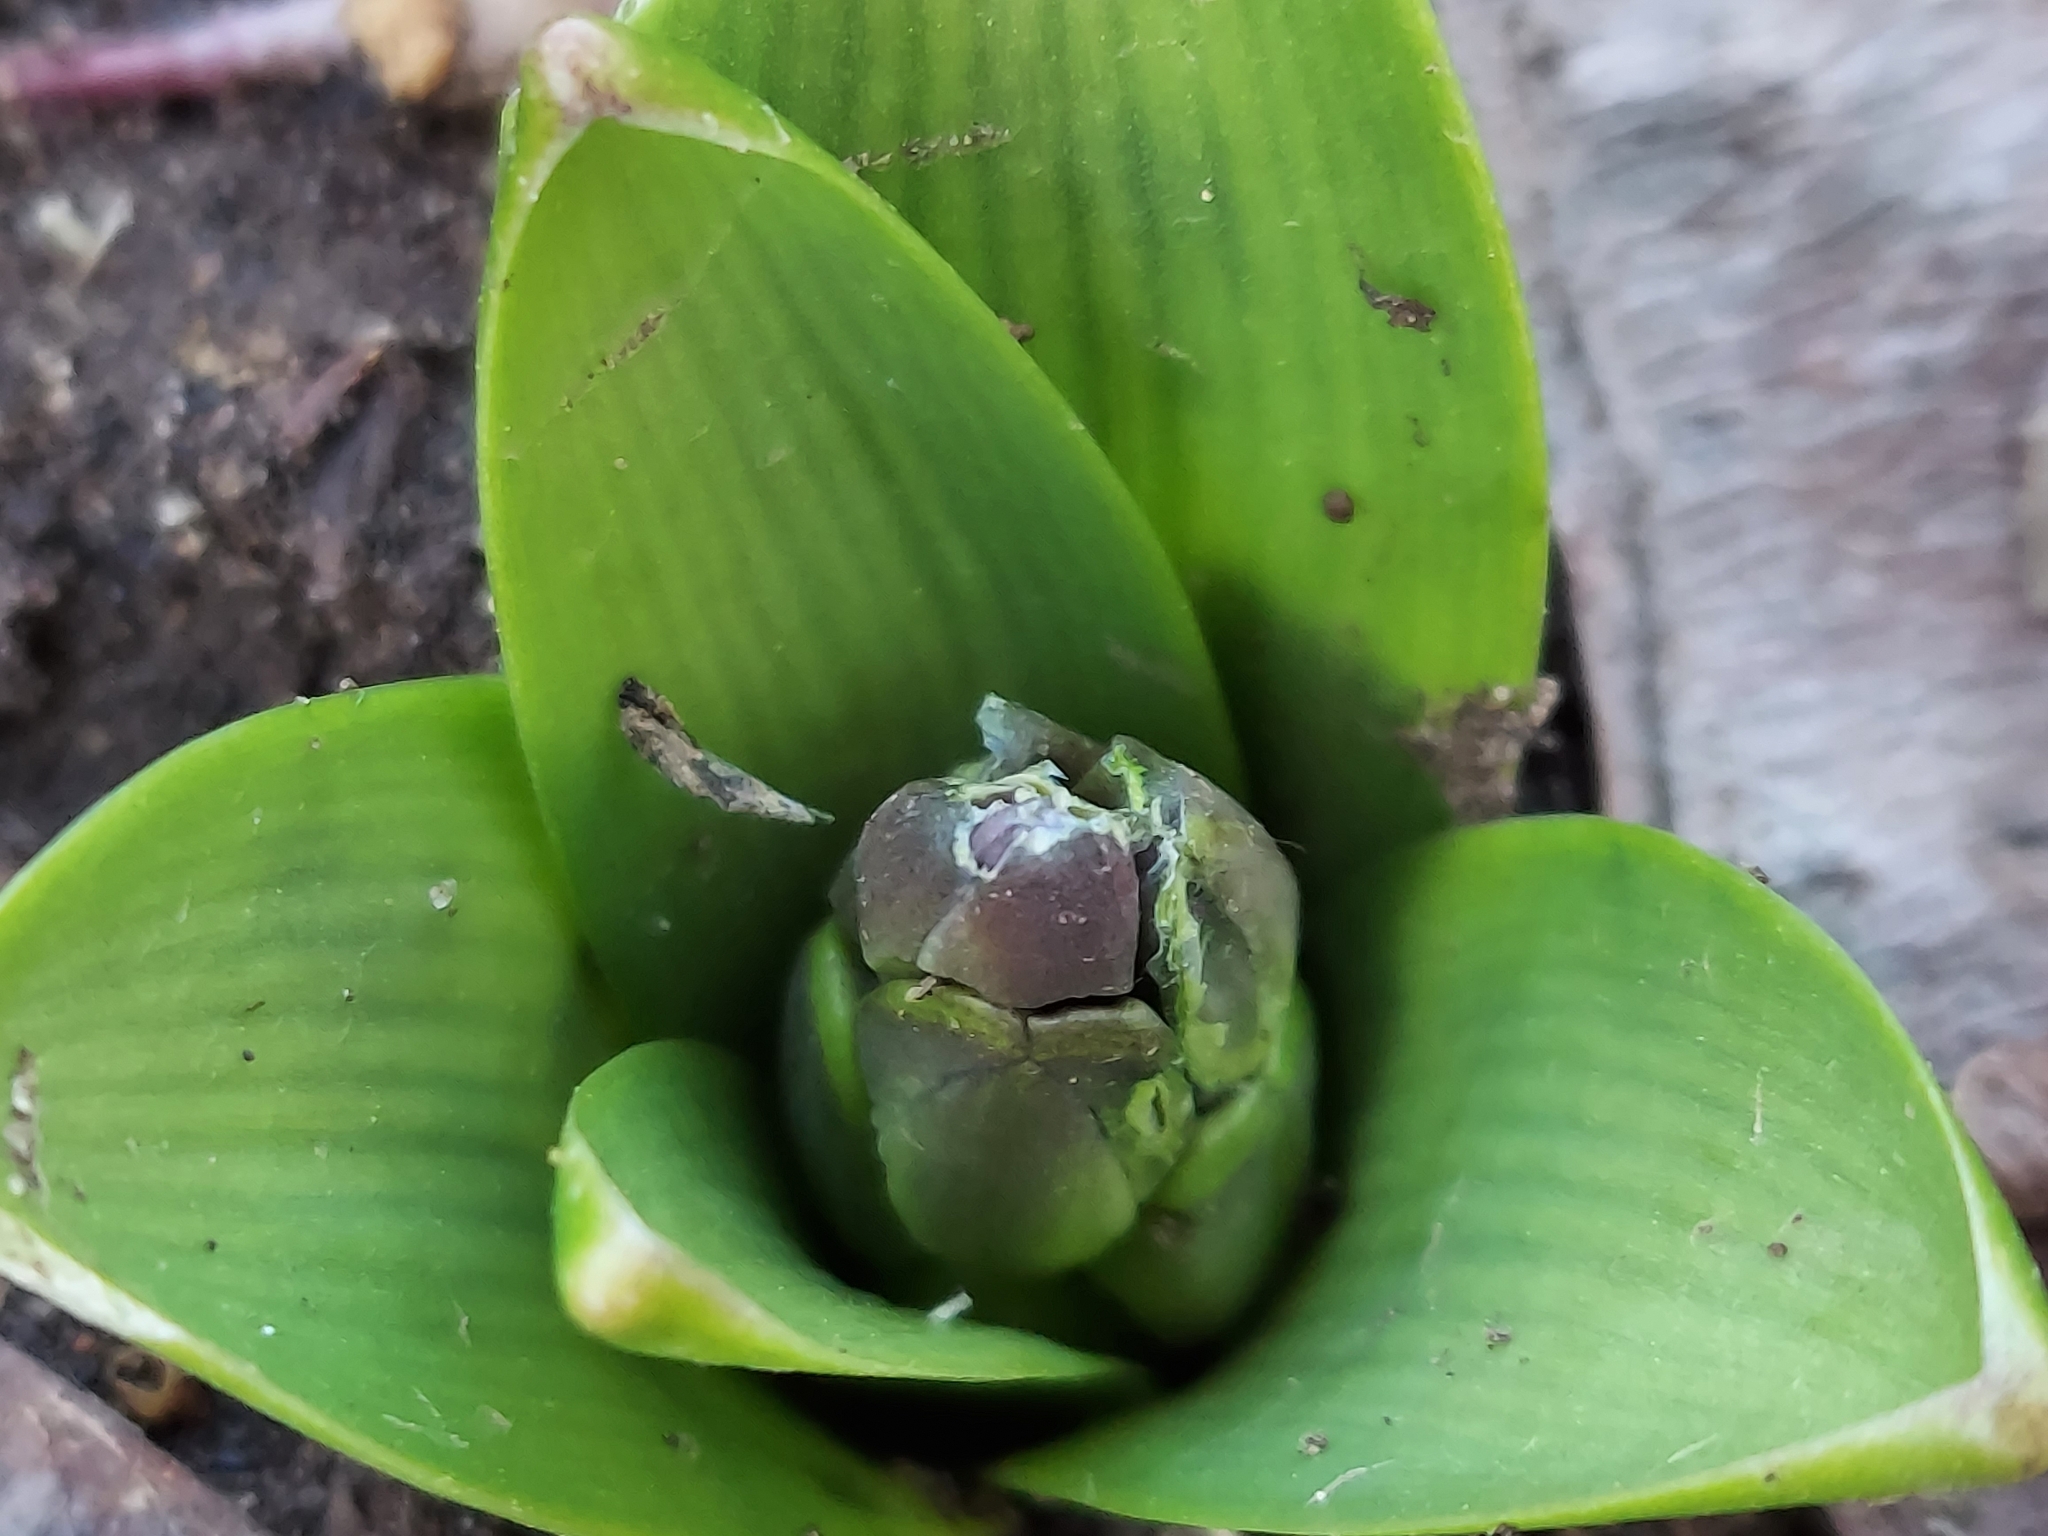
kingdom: Plantae
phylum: Tracheophyta
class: Liliopsida
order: Asparagales
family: Asparagaceae
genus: Hyacinthus
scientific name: Hyacinthus orientalis
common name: Hyacinth
